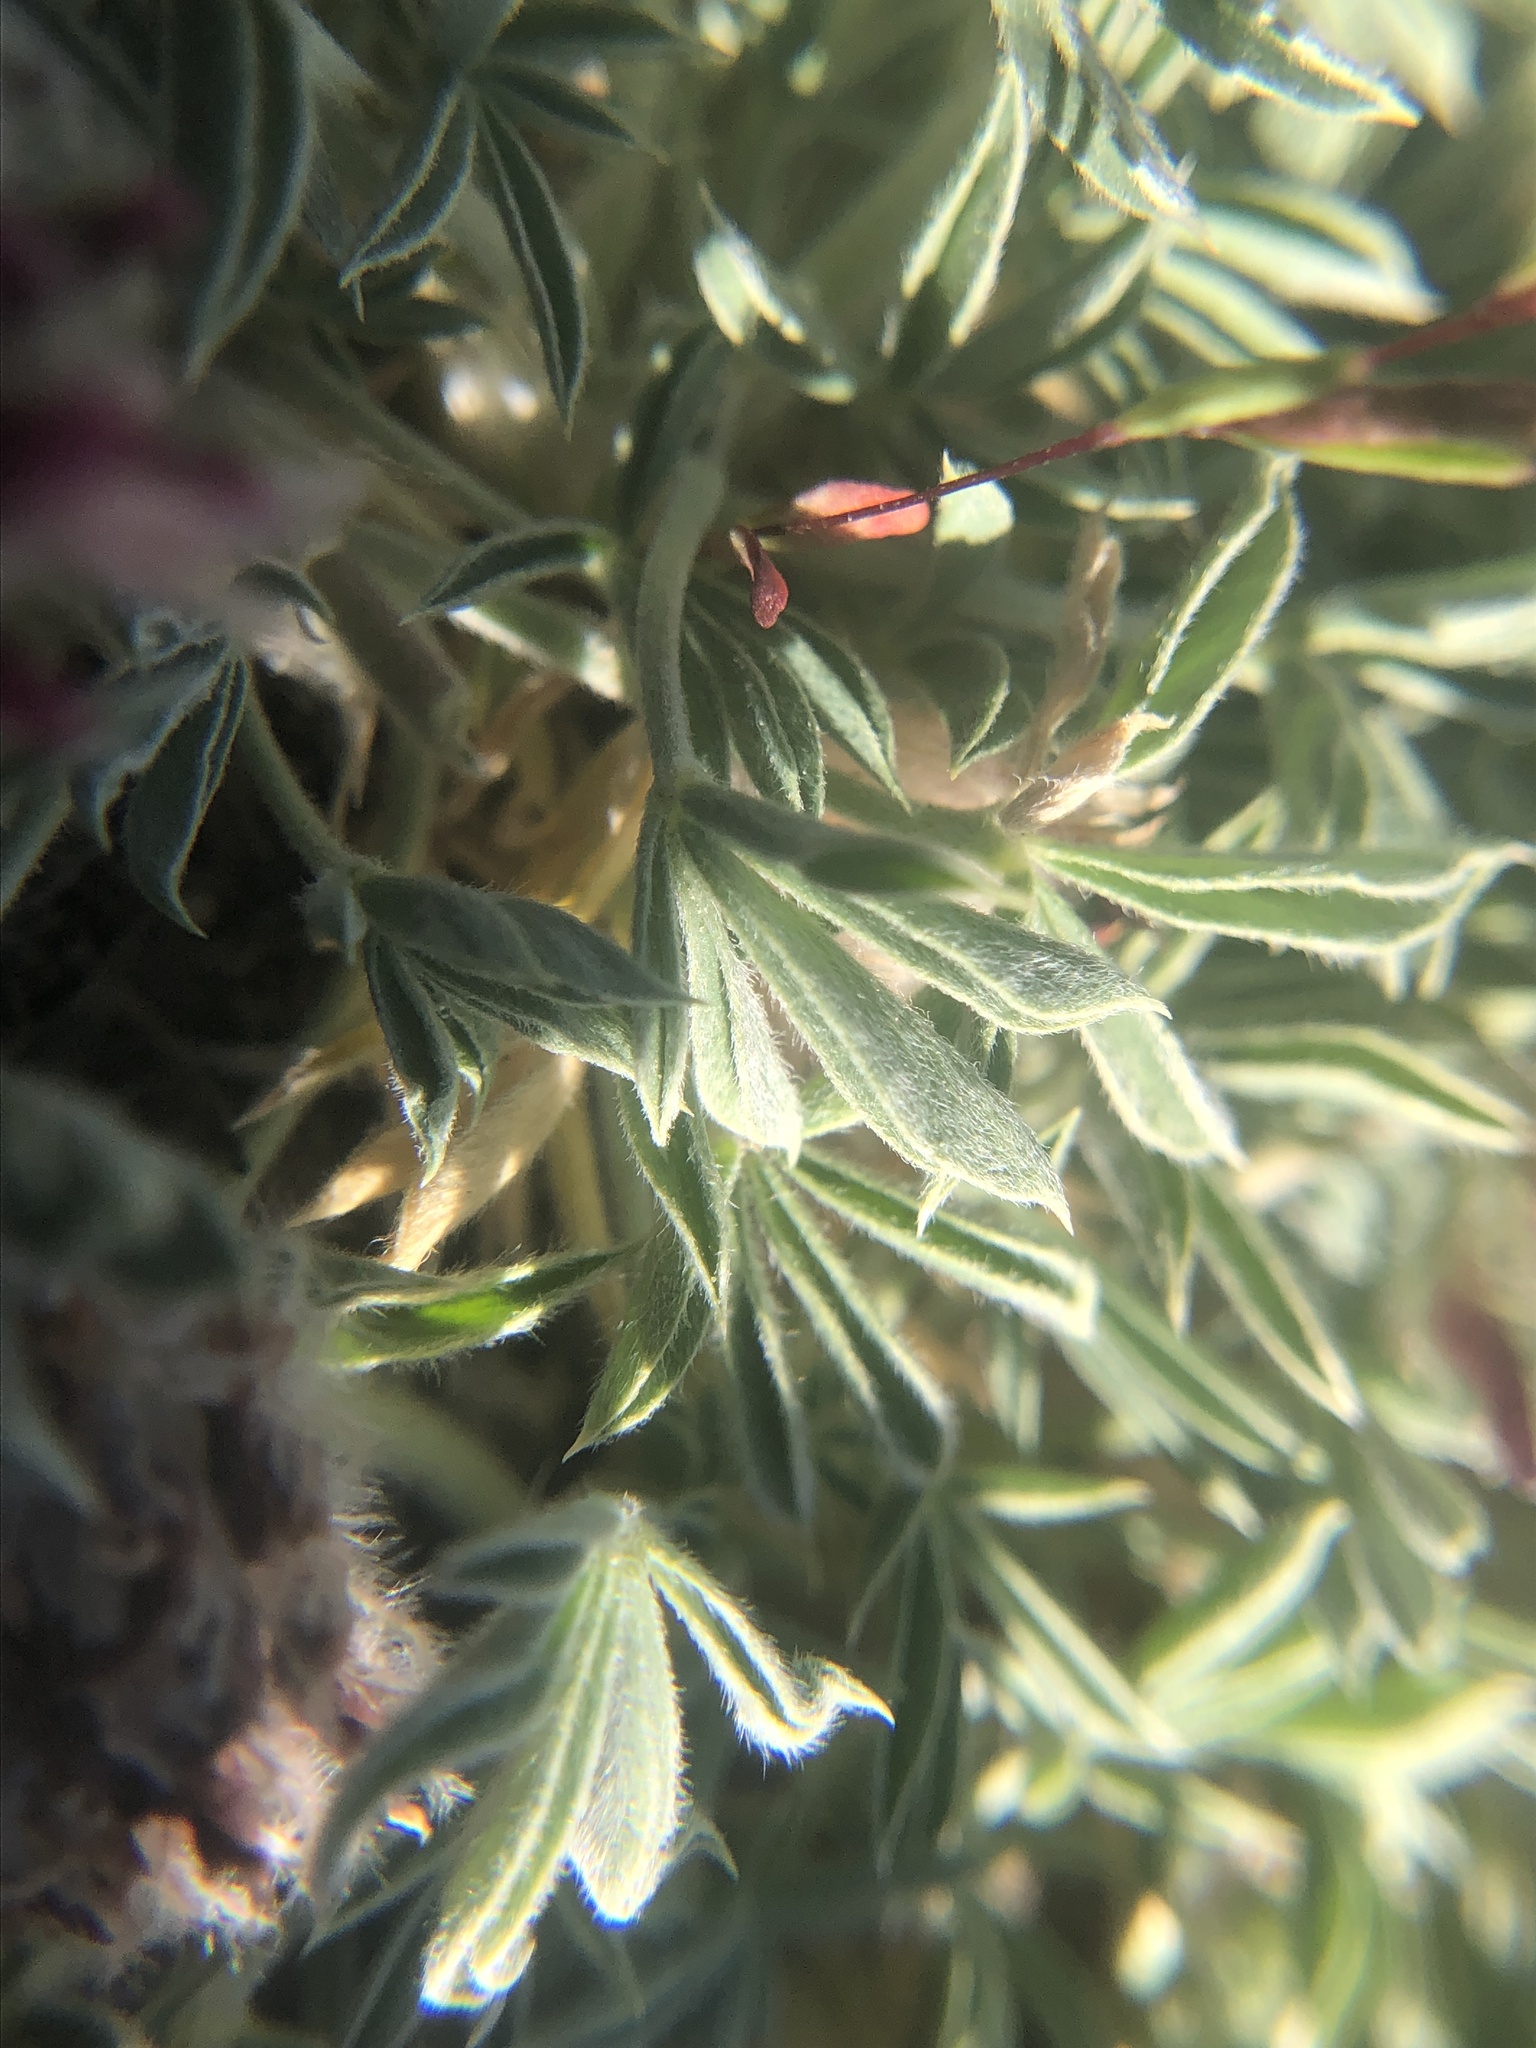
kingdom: Plantae
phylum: Tracheophyta
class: Magnoliopsida
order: Fabales
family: Fabaceae
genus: Trifolium
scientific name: Trifolium andersonii
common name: Anderson's clover
